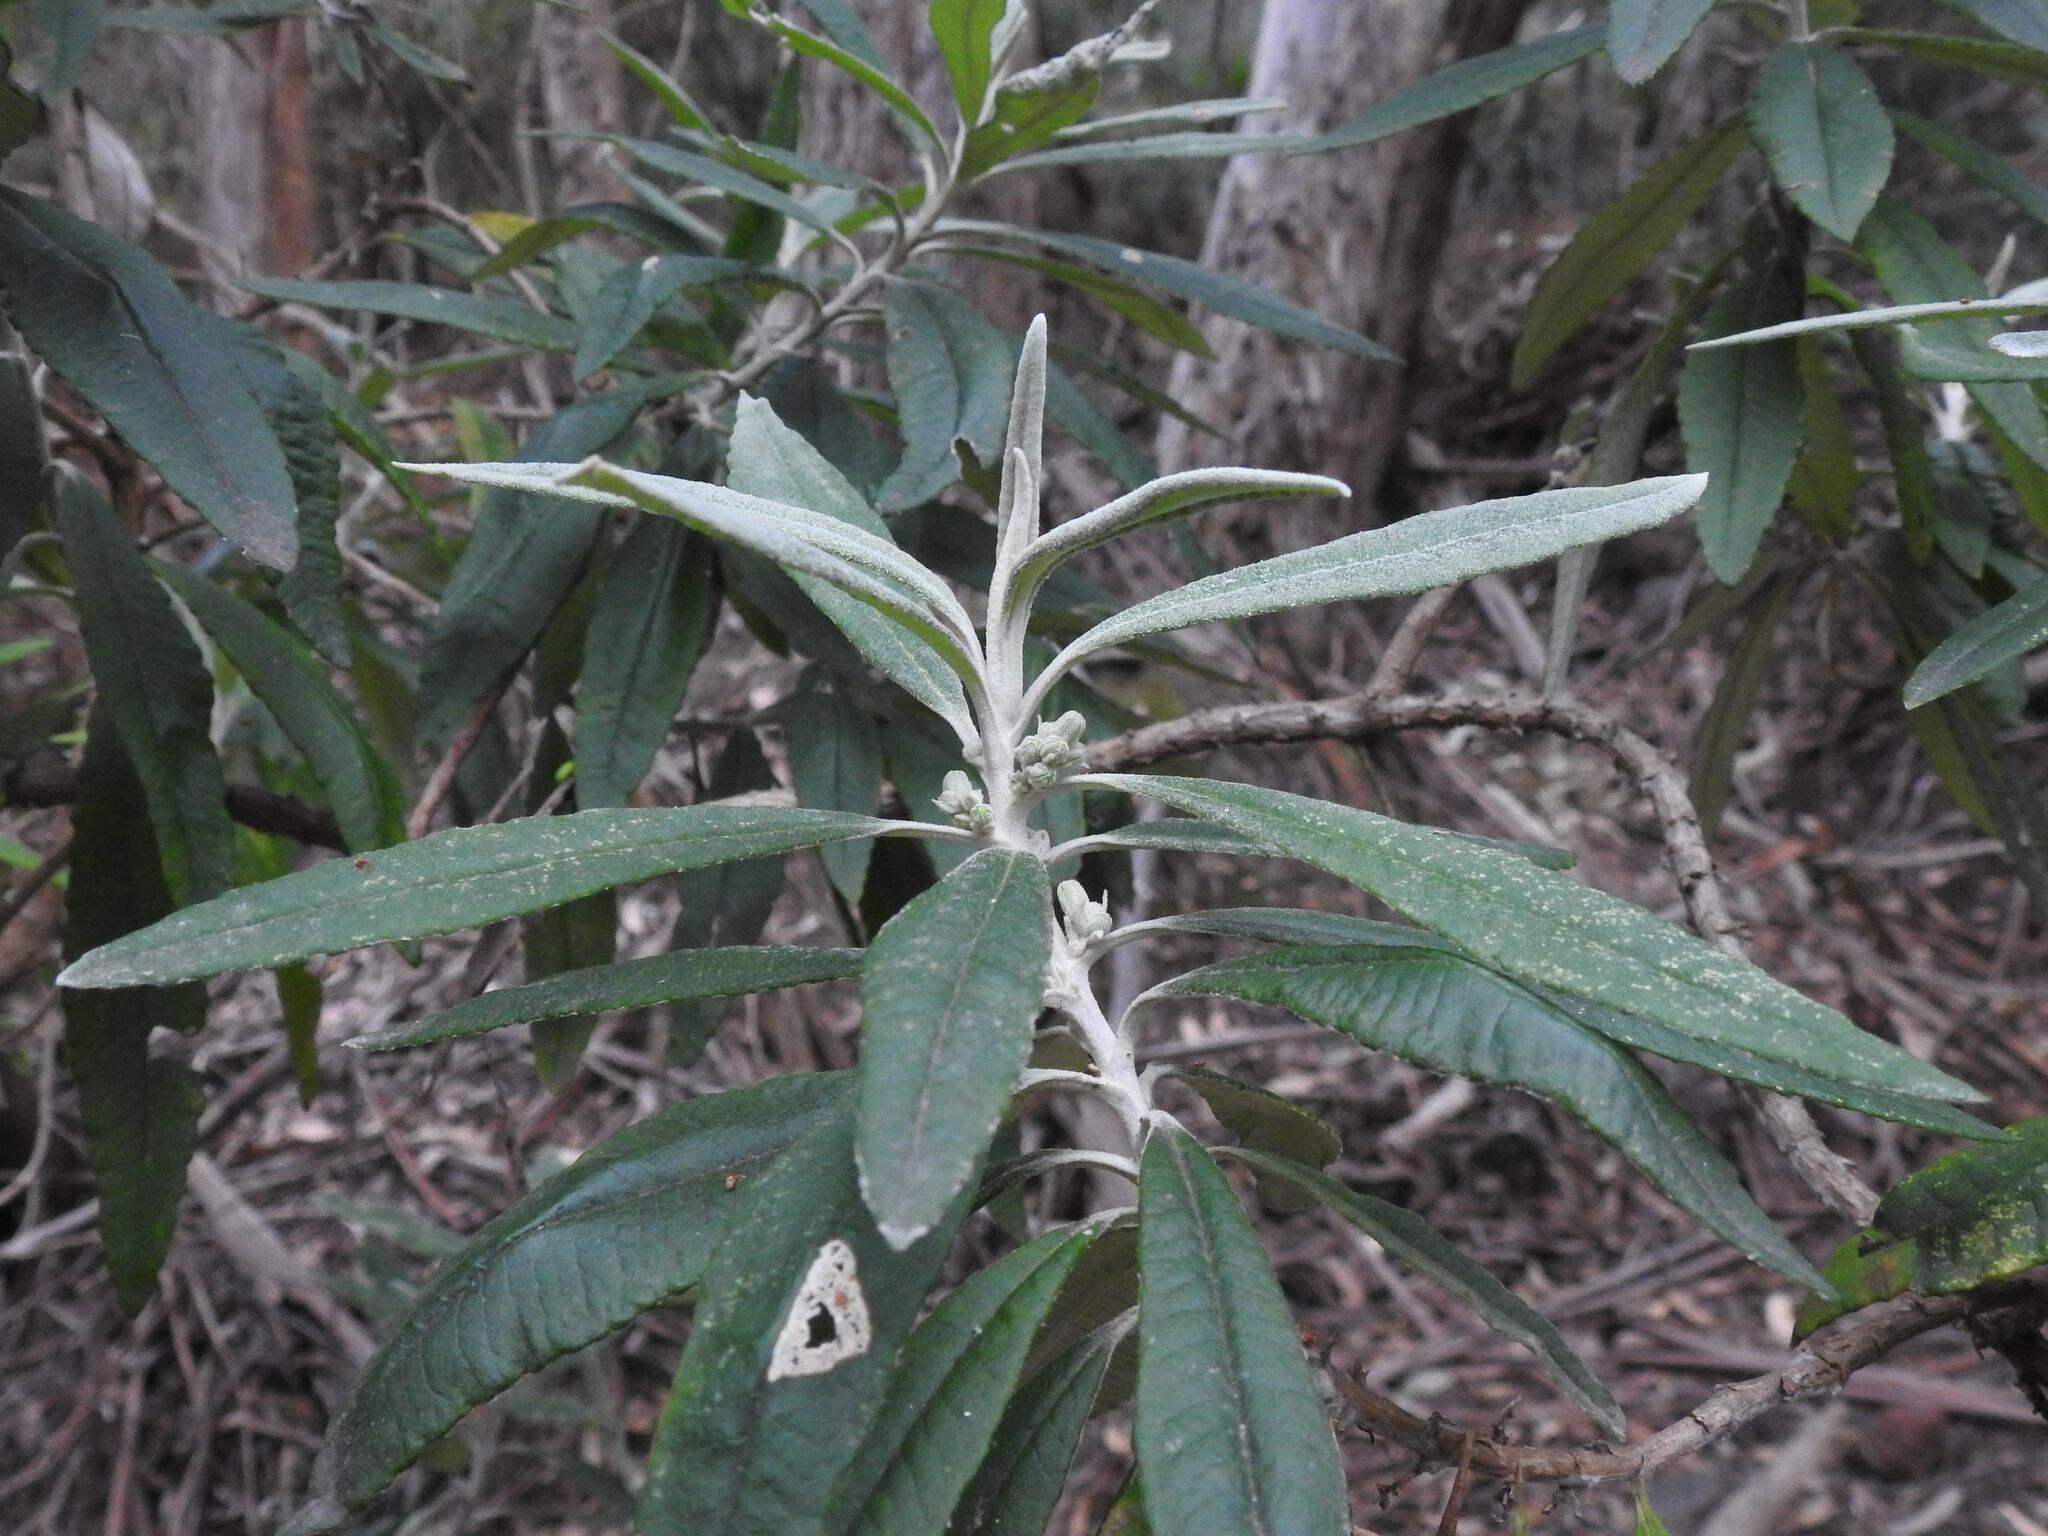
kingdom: Plantae
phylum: Tracheophyta
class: Magnoliopsida
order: Asterales
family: Asteraceae
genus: Bedfordia
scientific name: Bedfordia salicina
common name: Blanketleaf
